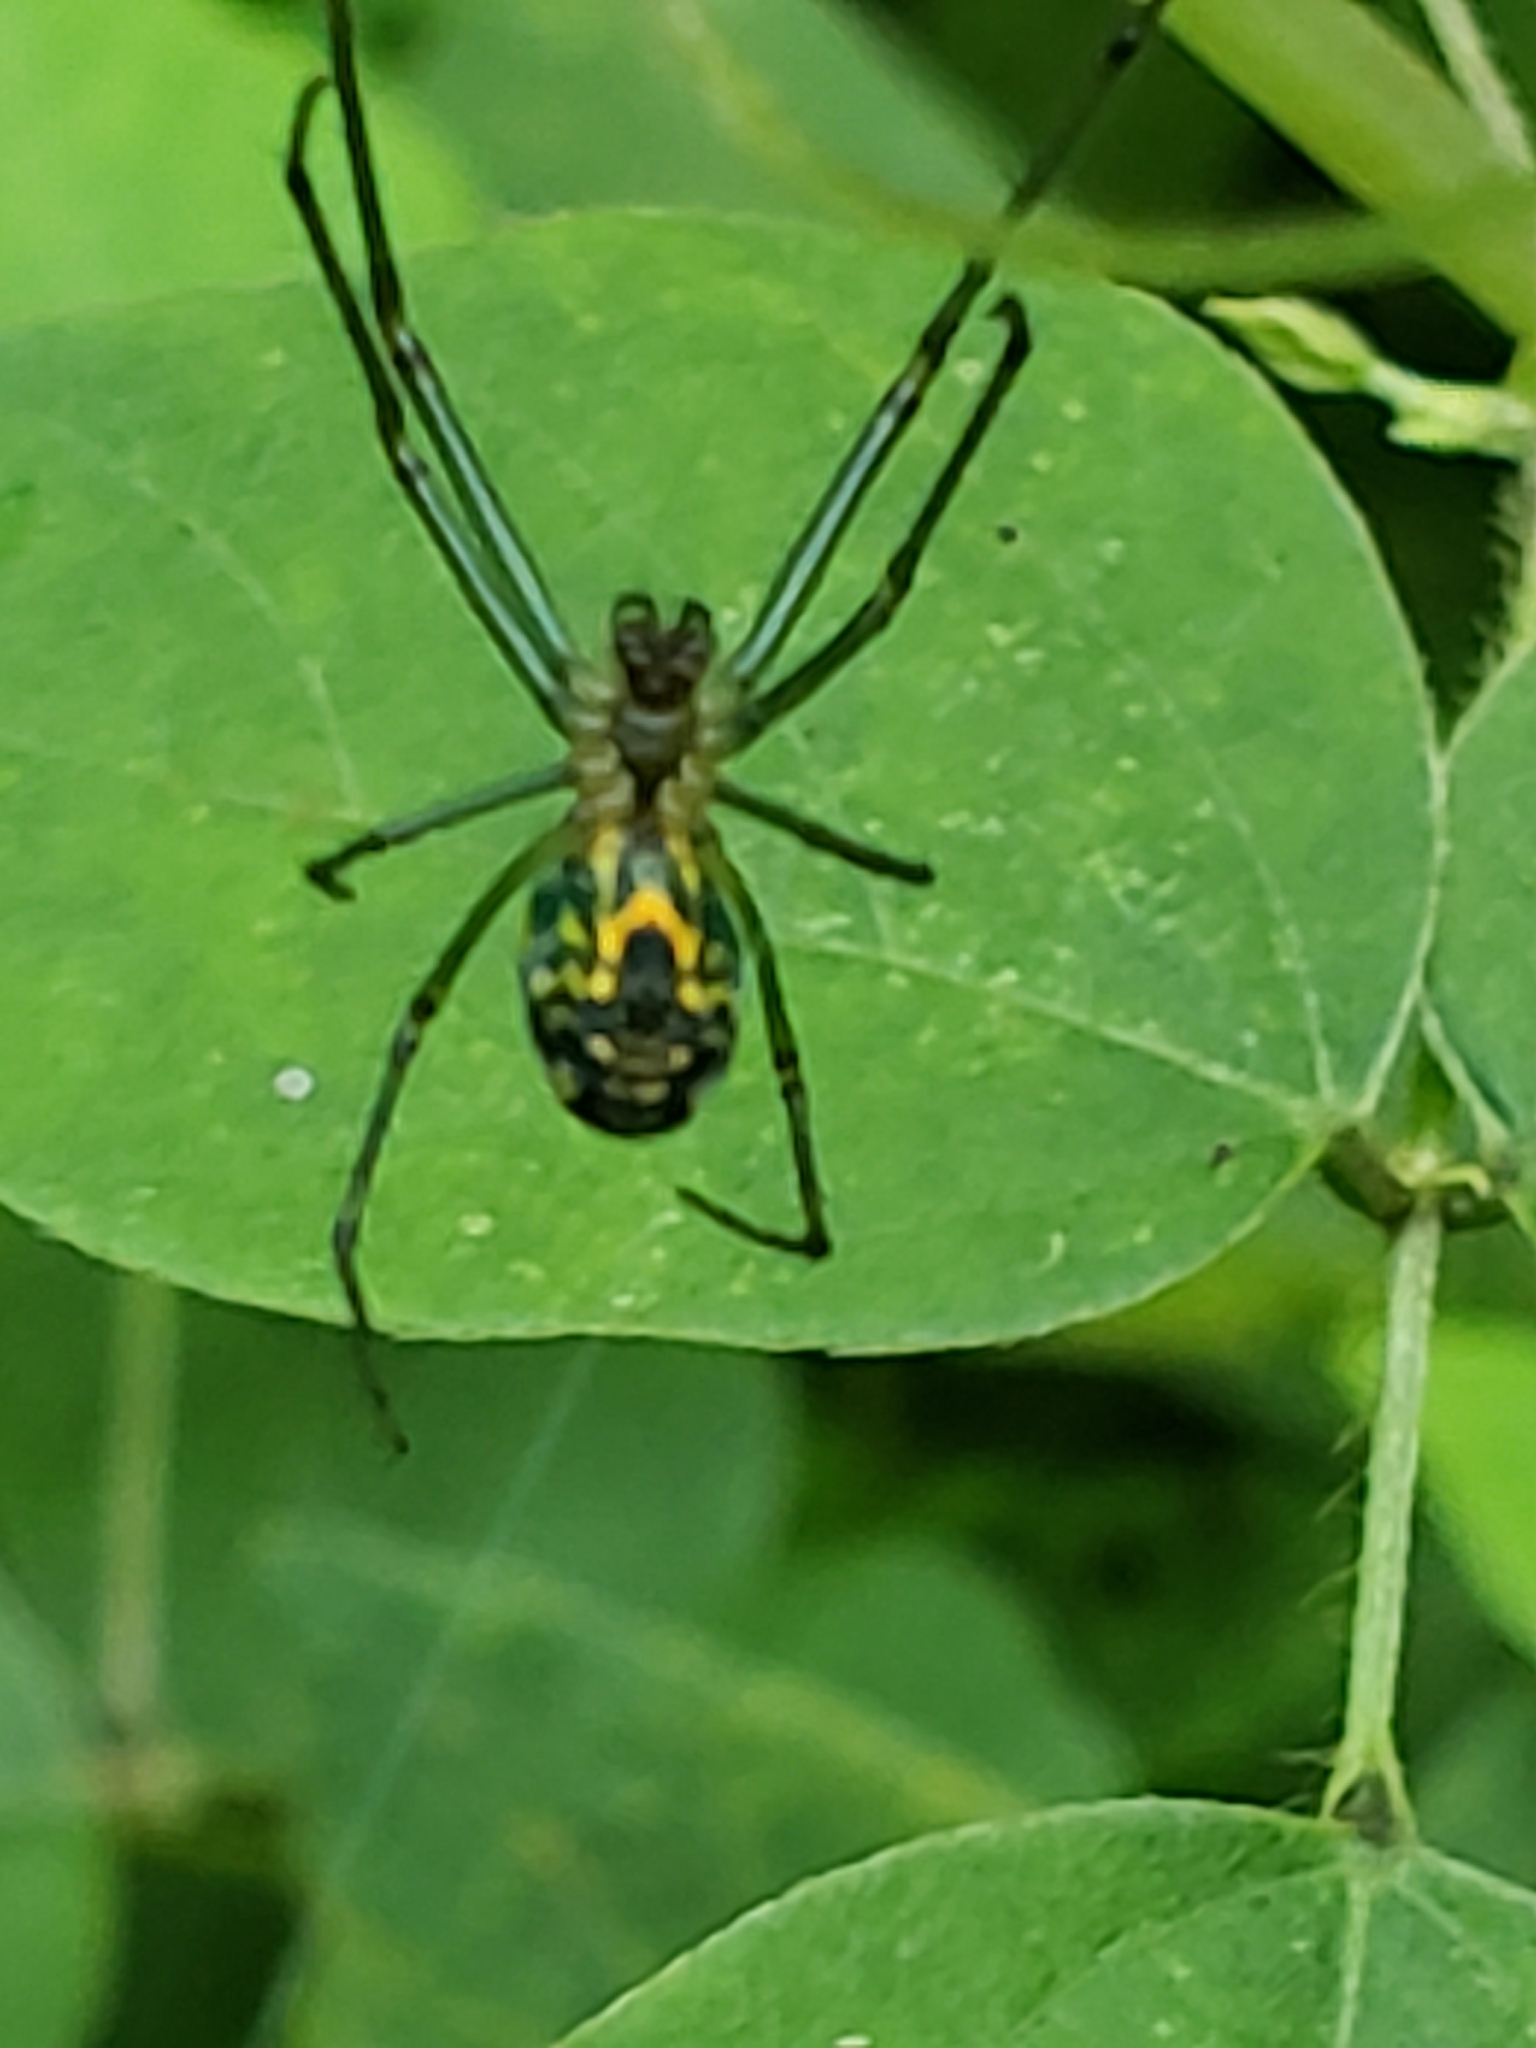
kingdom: Animalia
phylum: Arthropoda
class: Arachnida
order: Araneae
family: Tetragnathidae
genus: Leucauge
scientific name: Leucauge venusta
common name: Longjawed orb weavers
